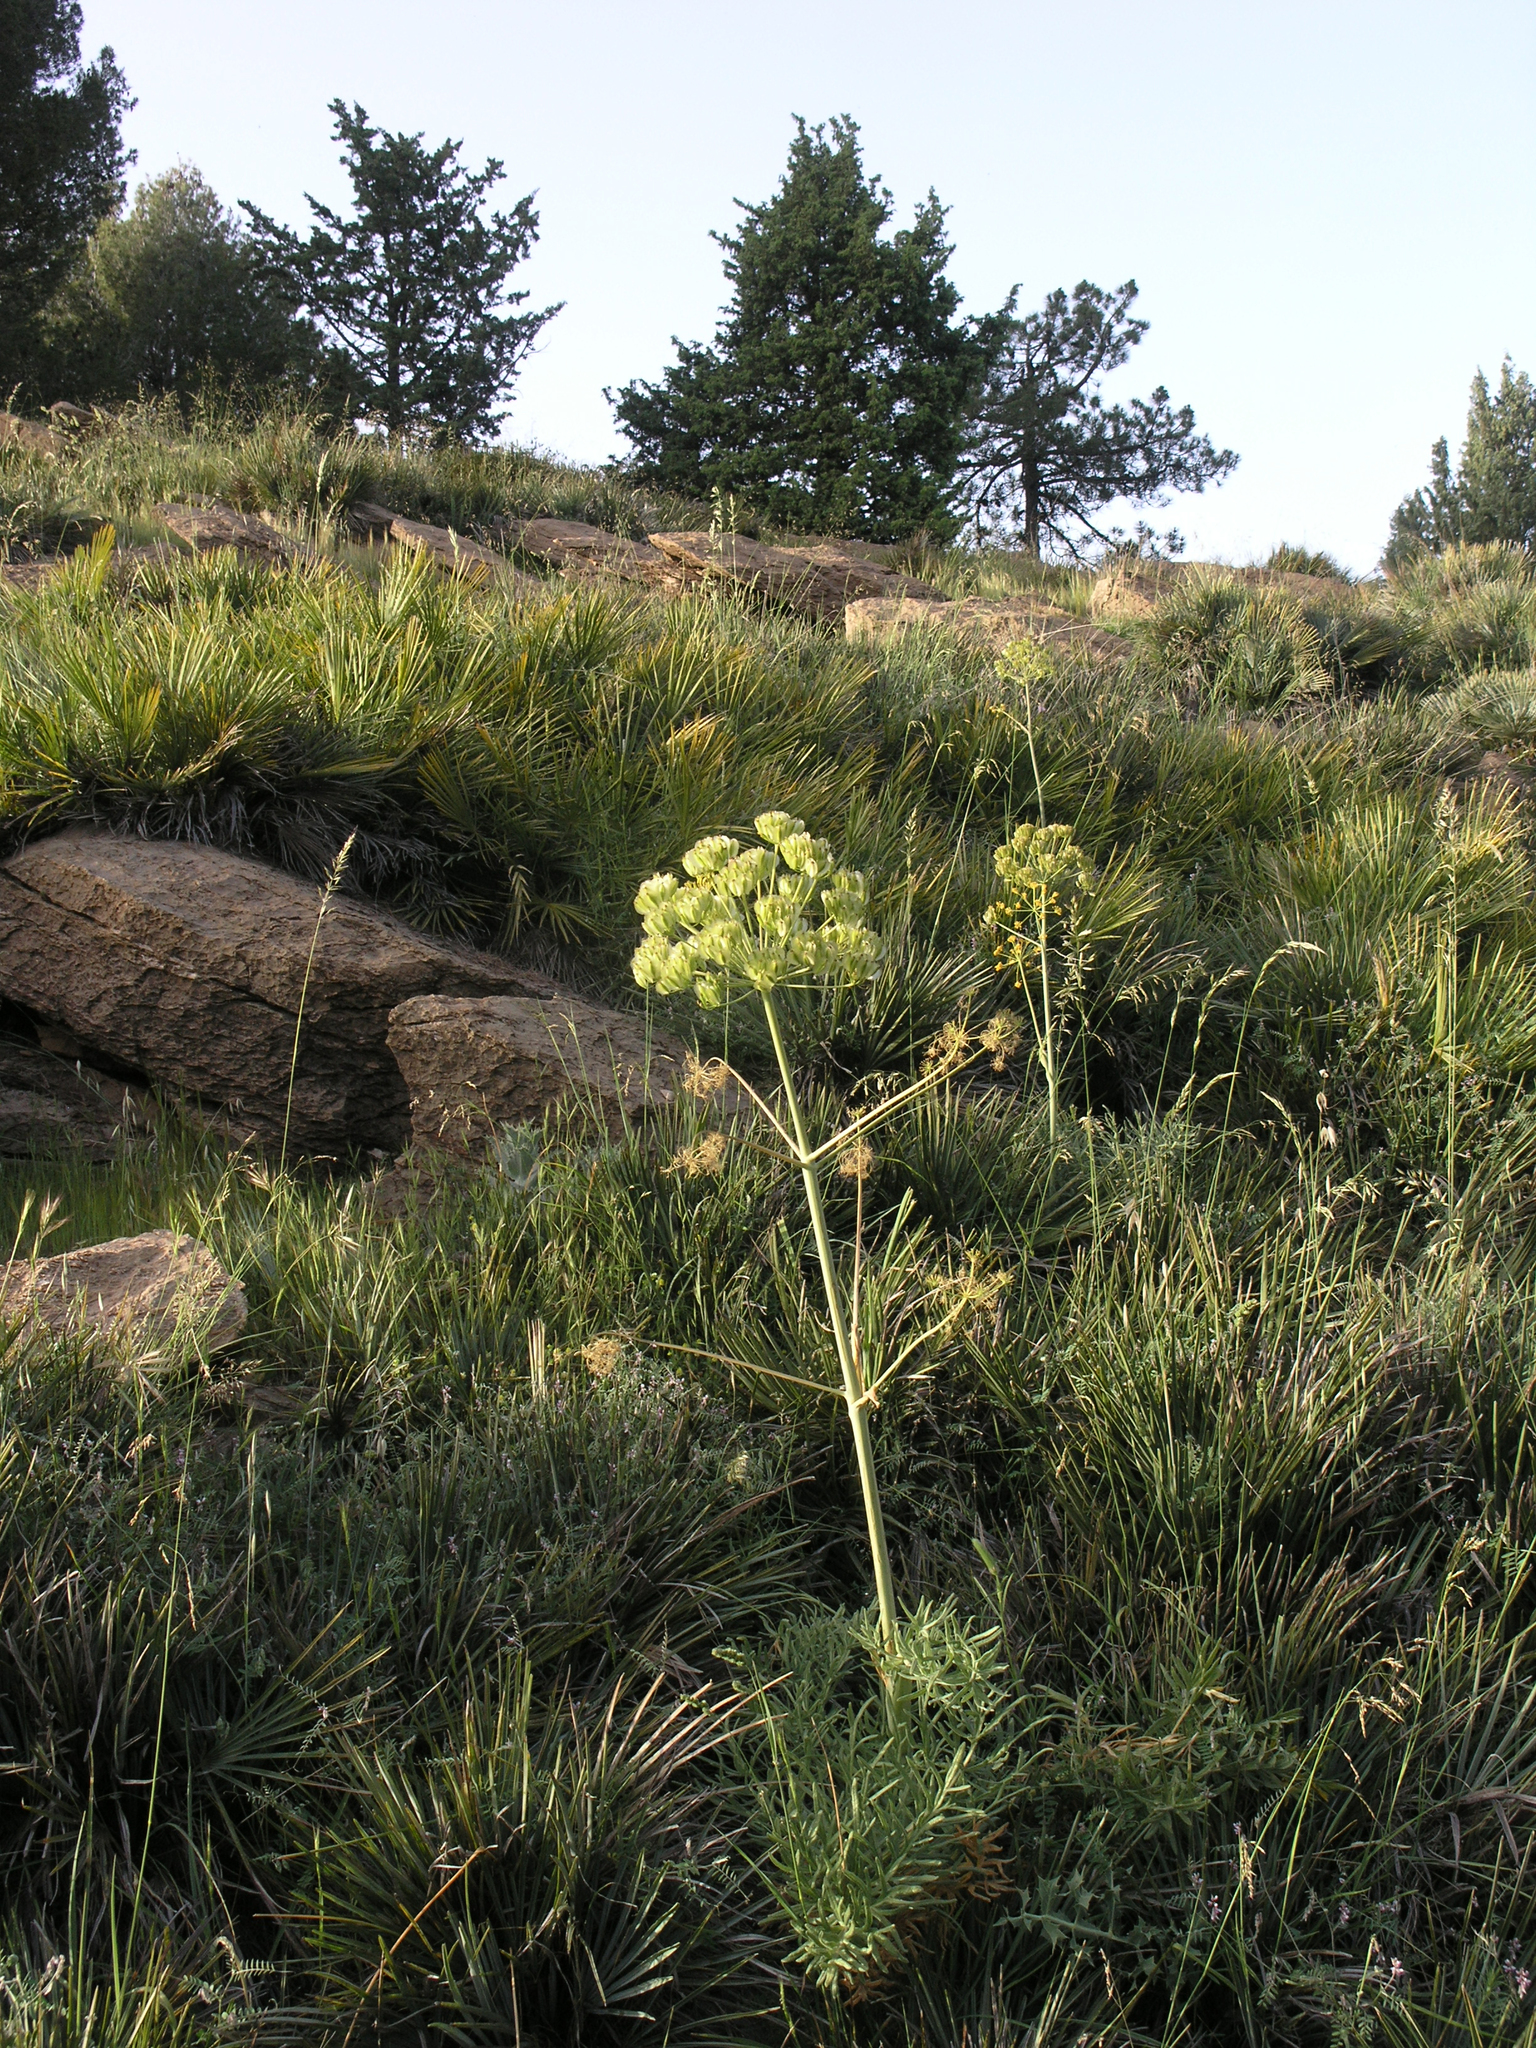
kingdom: Plantae
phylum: Tracheophyta
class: Magnoliopsida
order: Apiales
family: Apiaceae
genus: Thapsia
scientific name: Thapsia transtagana
